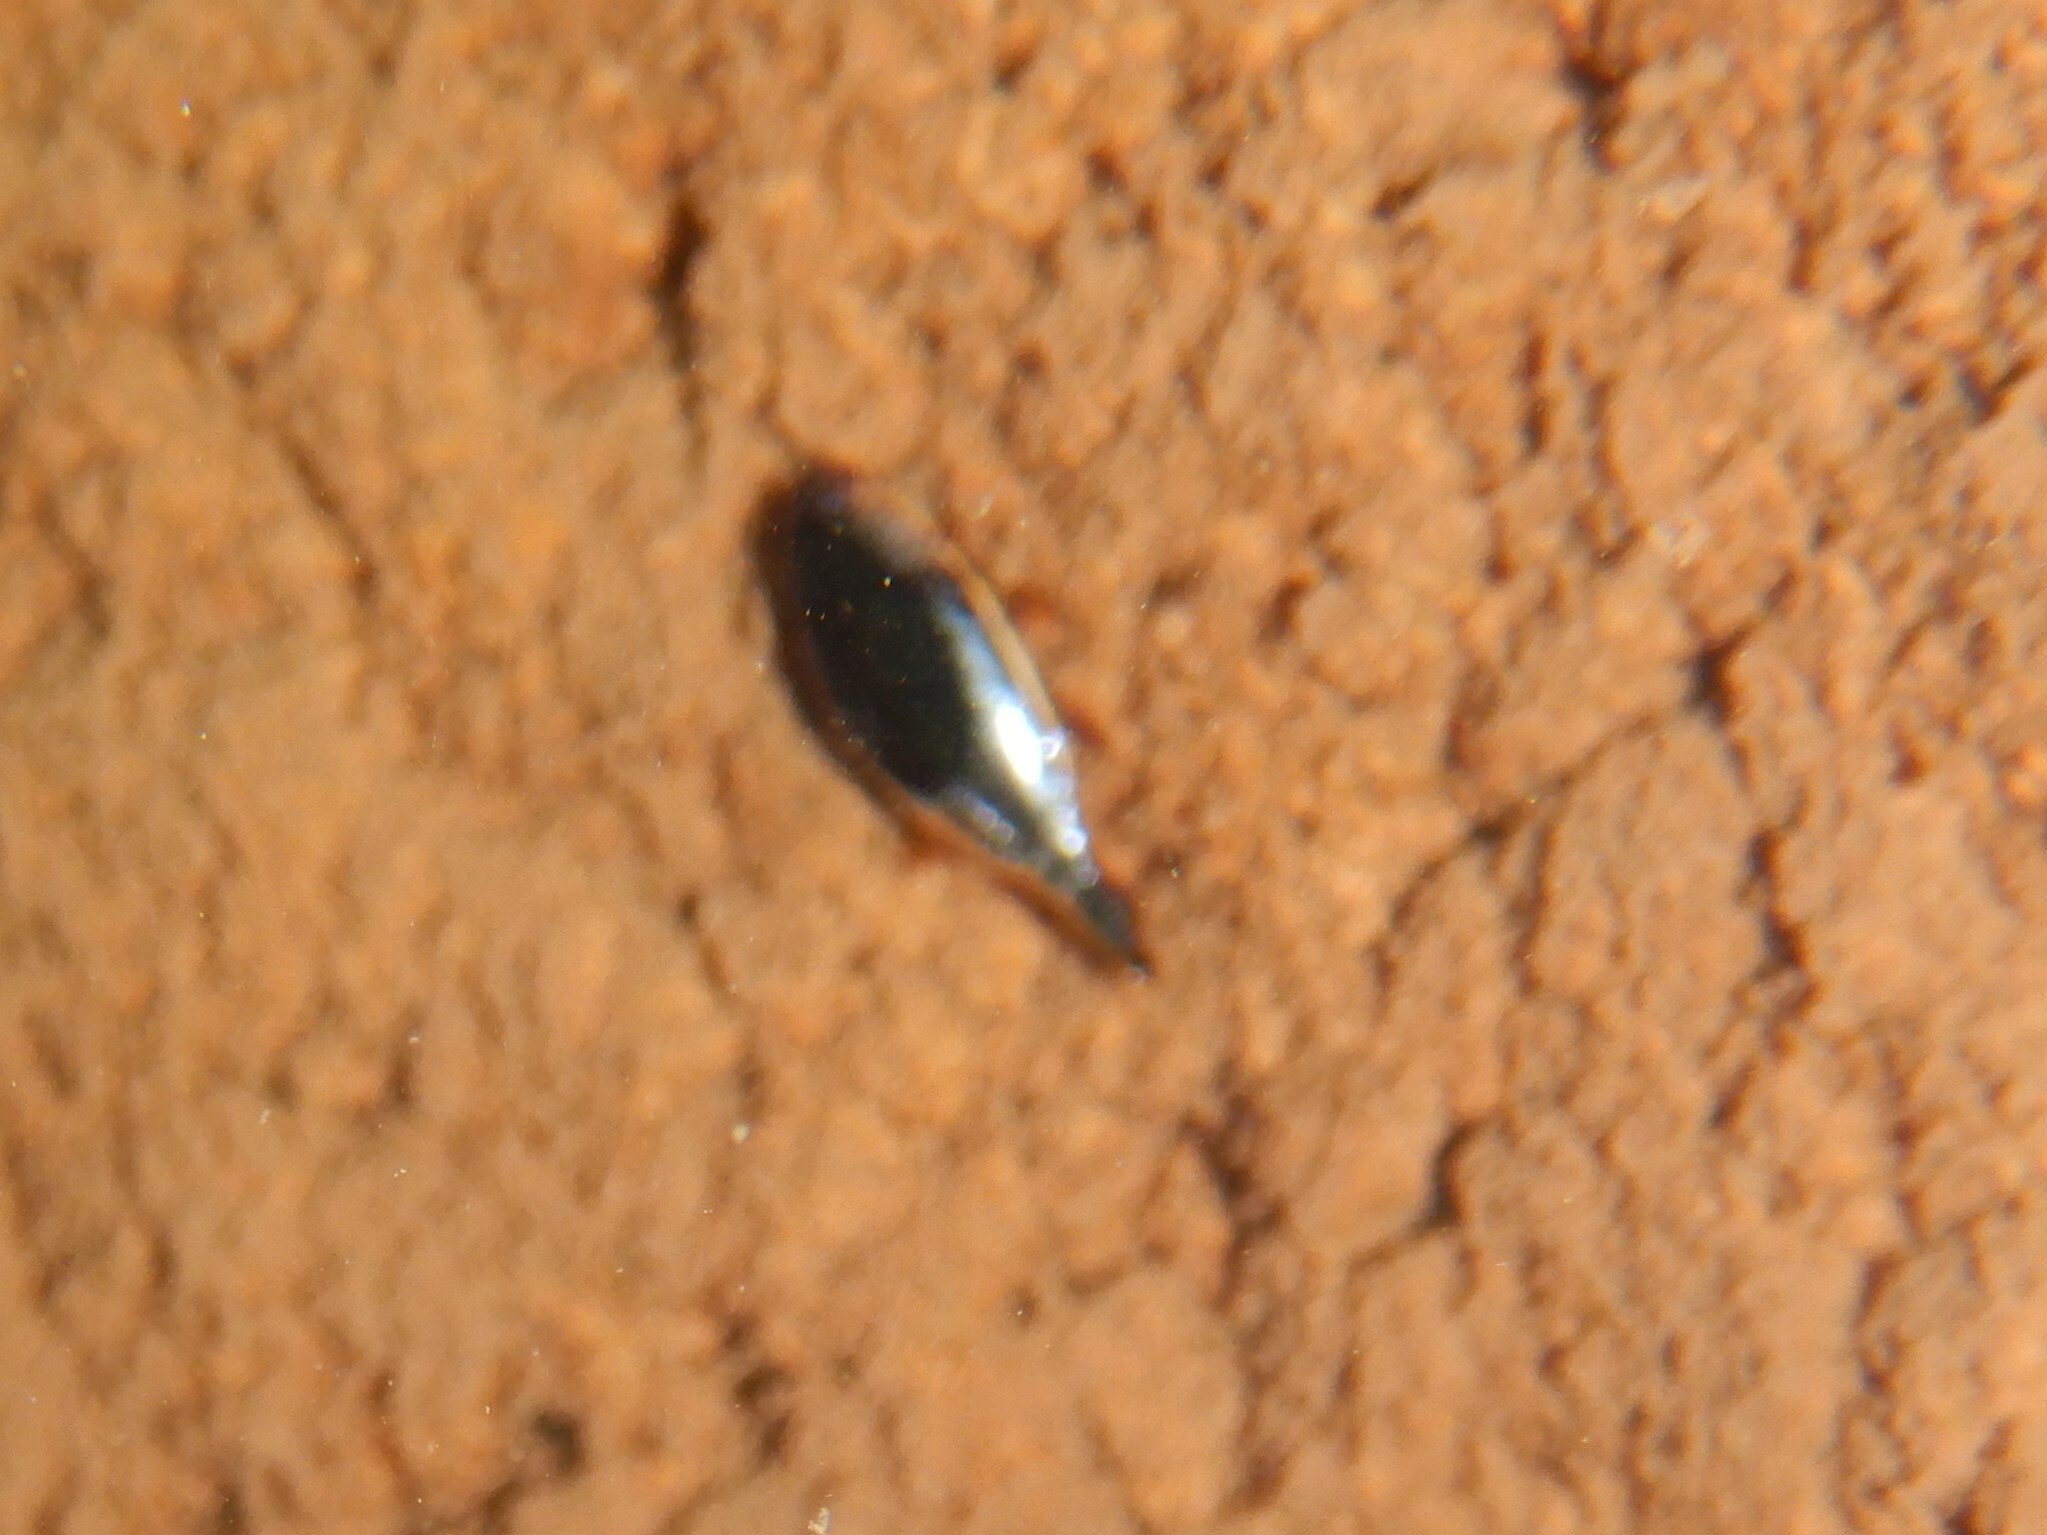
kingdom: Animalia
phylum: Arthropoda
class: Insecta
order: Coleoptera
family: Gyrinidae
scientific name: Gyrinidae
